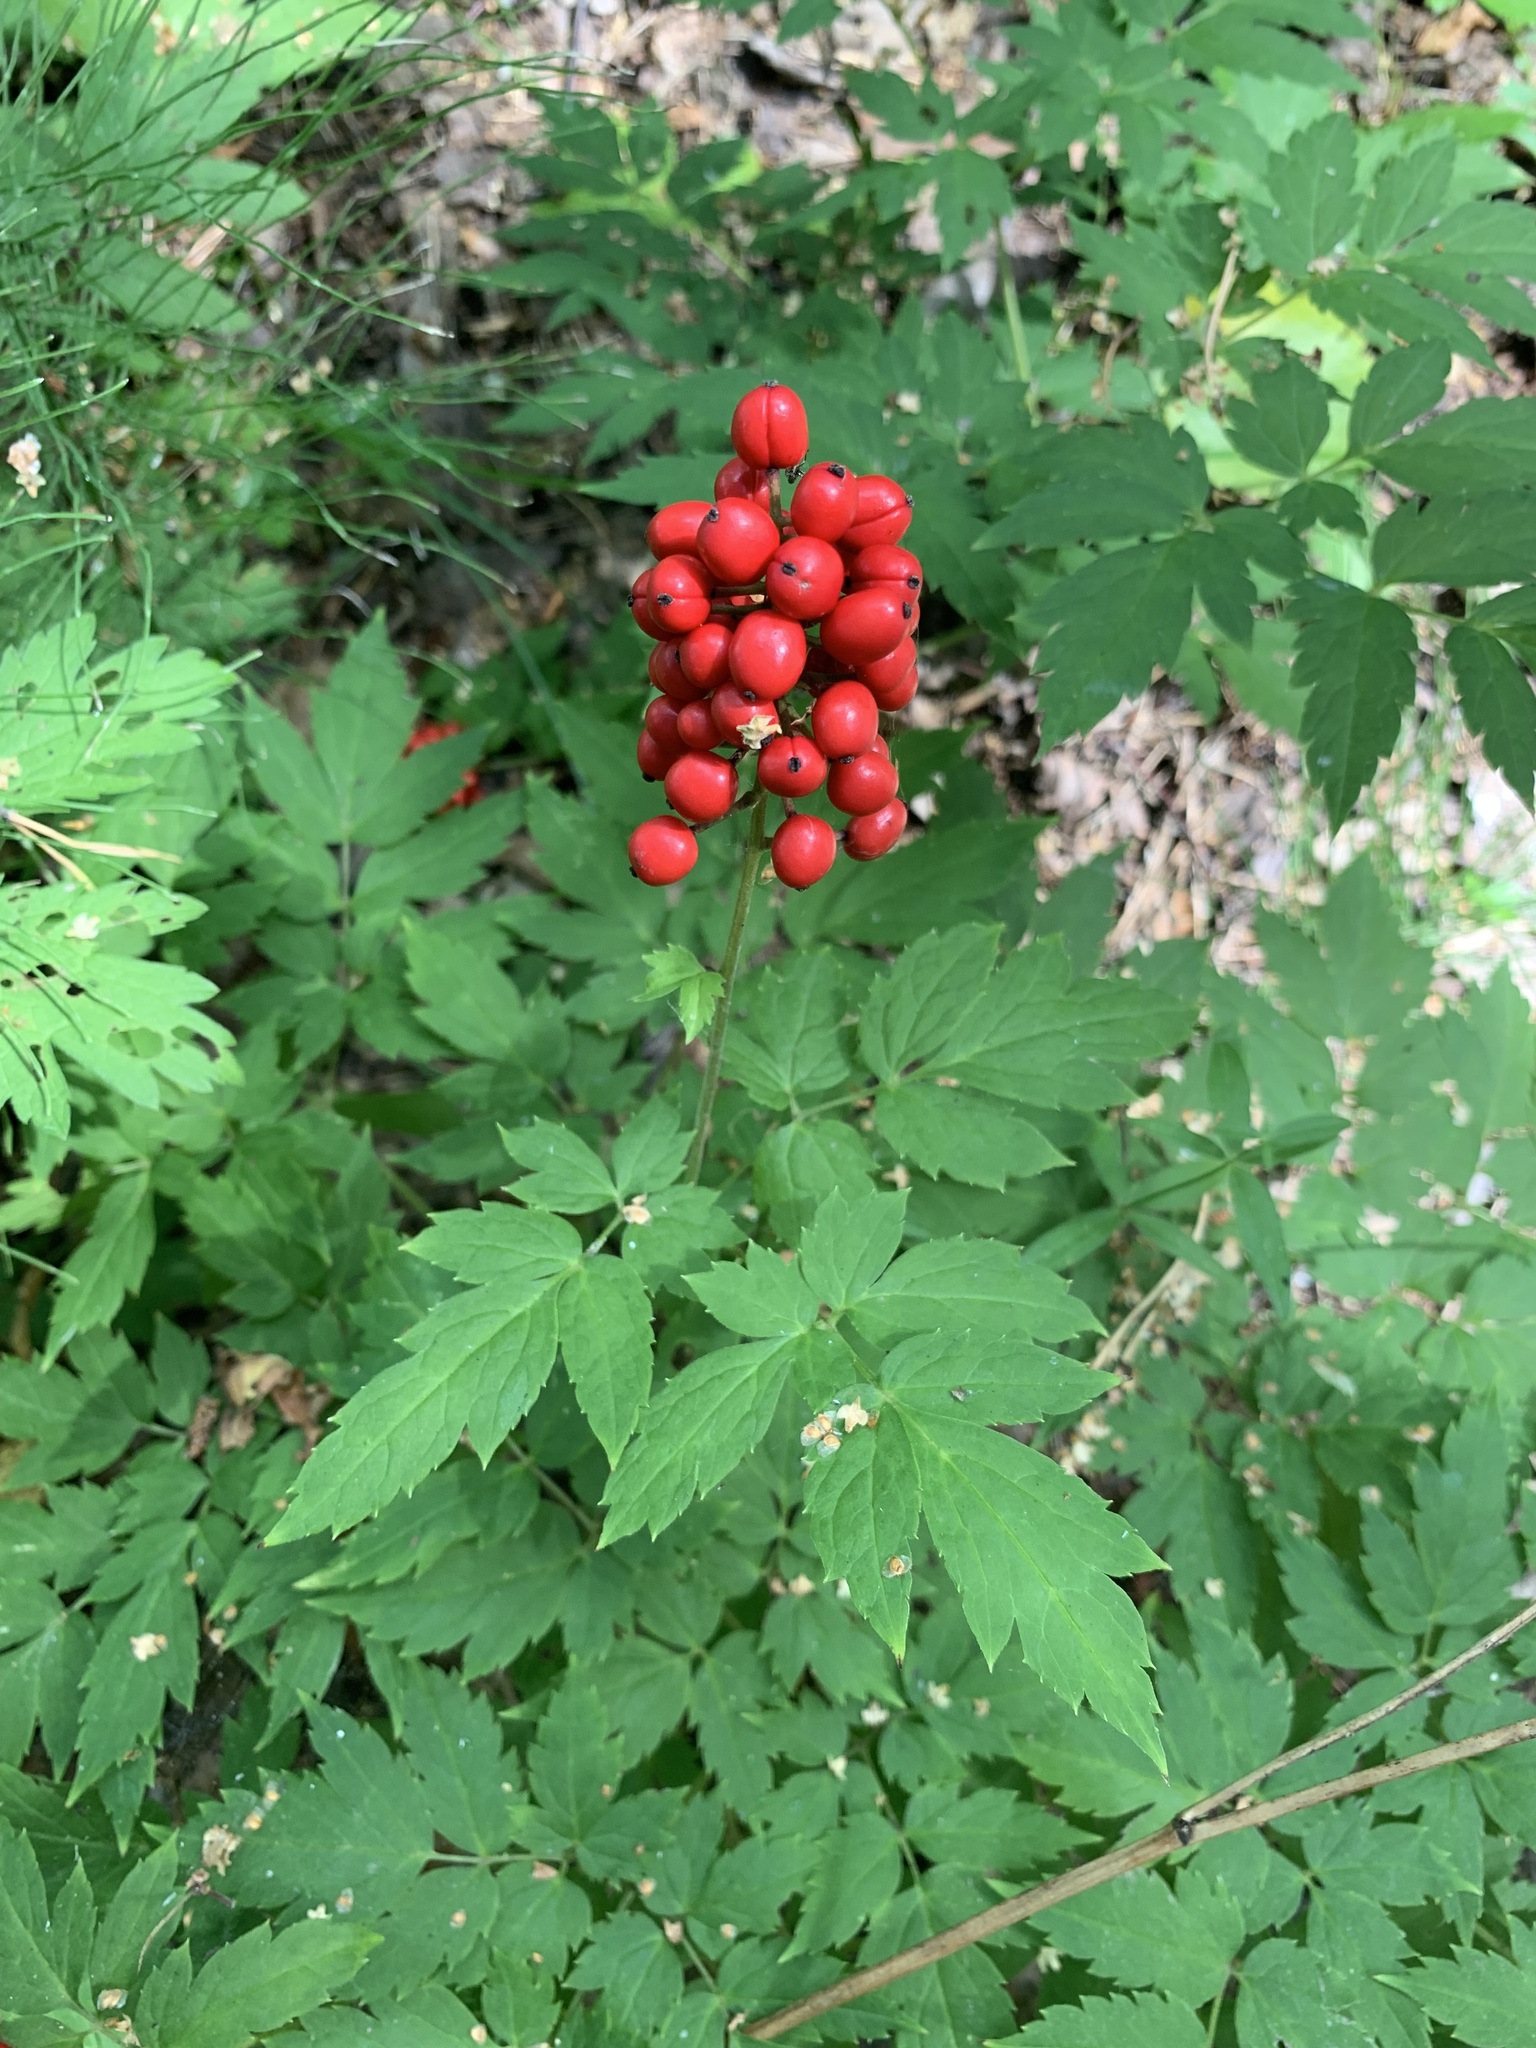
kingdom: Plantae
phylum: Tracheophyta
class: Magnoliopsida
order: Ranunculales
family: Ranunculaceae
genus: Actaea
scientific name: Actaea erythrocarpa
